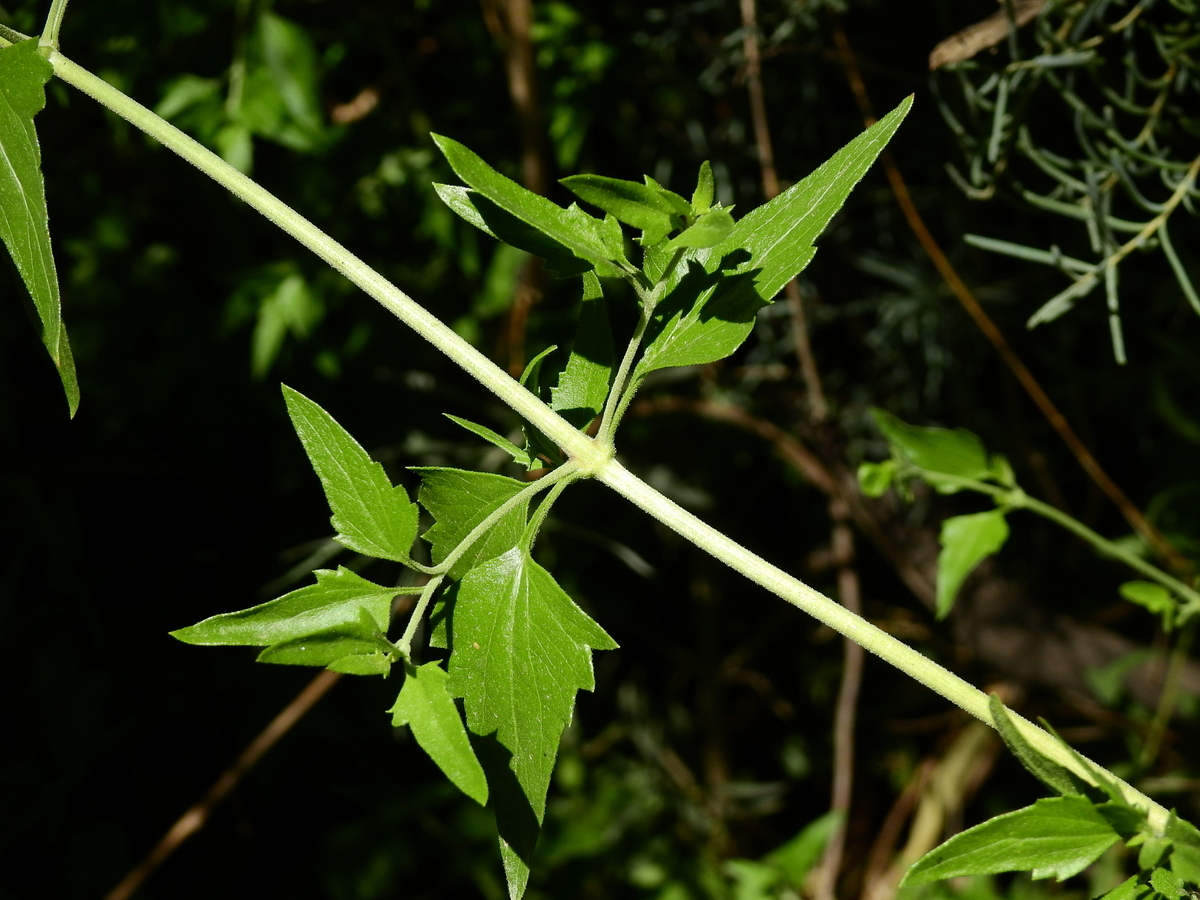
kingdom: Plantae
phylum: Tracheophyta
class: Magnoliopsida
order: Asterales
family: Asteraceae
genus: Austrobrickellia
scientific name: Austrobrickellia patens
